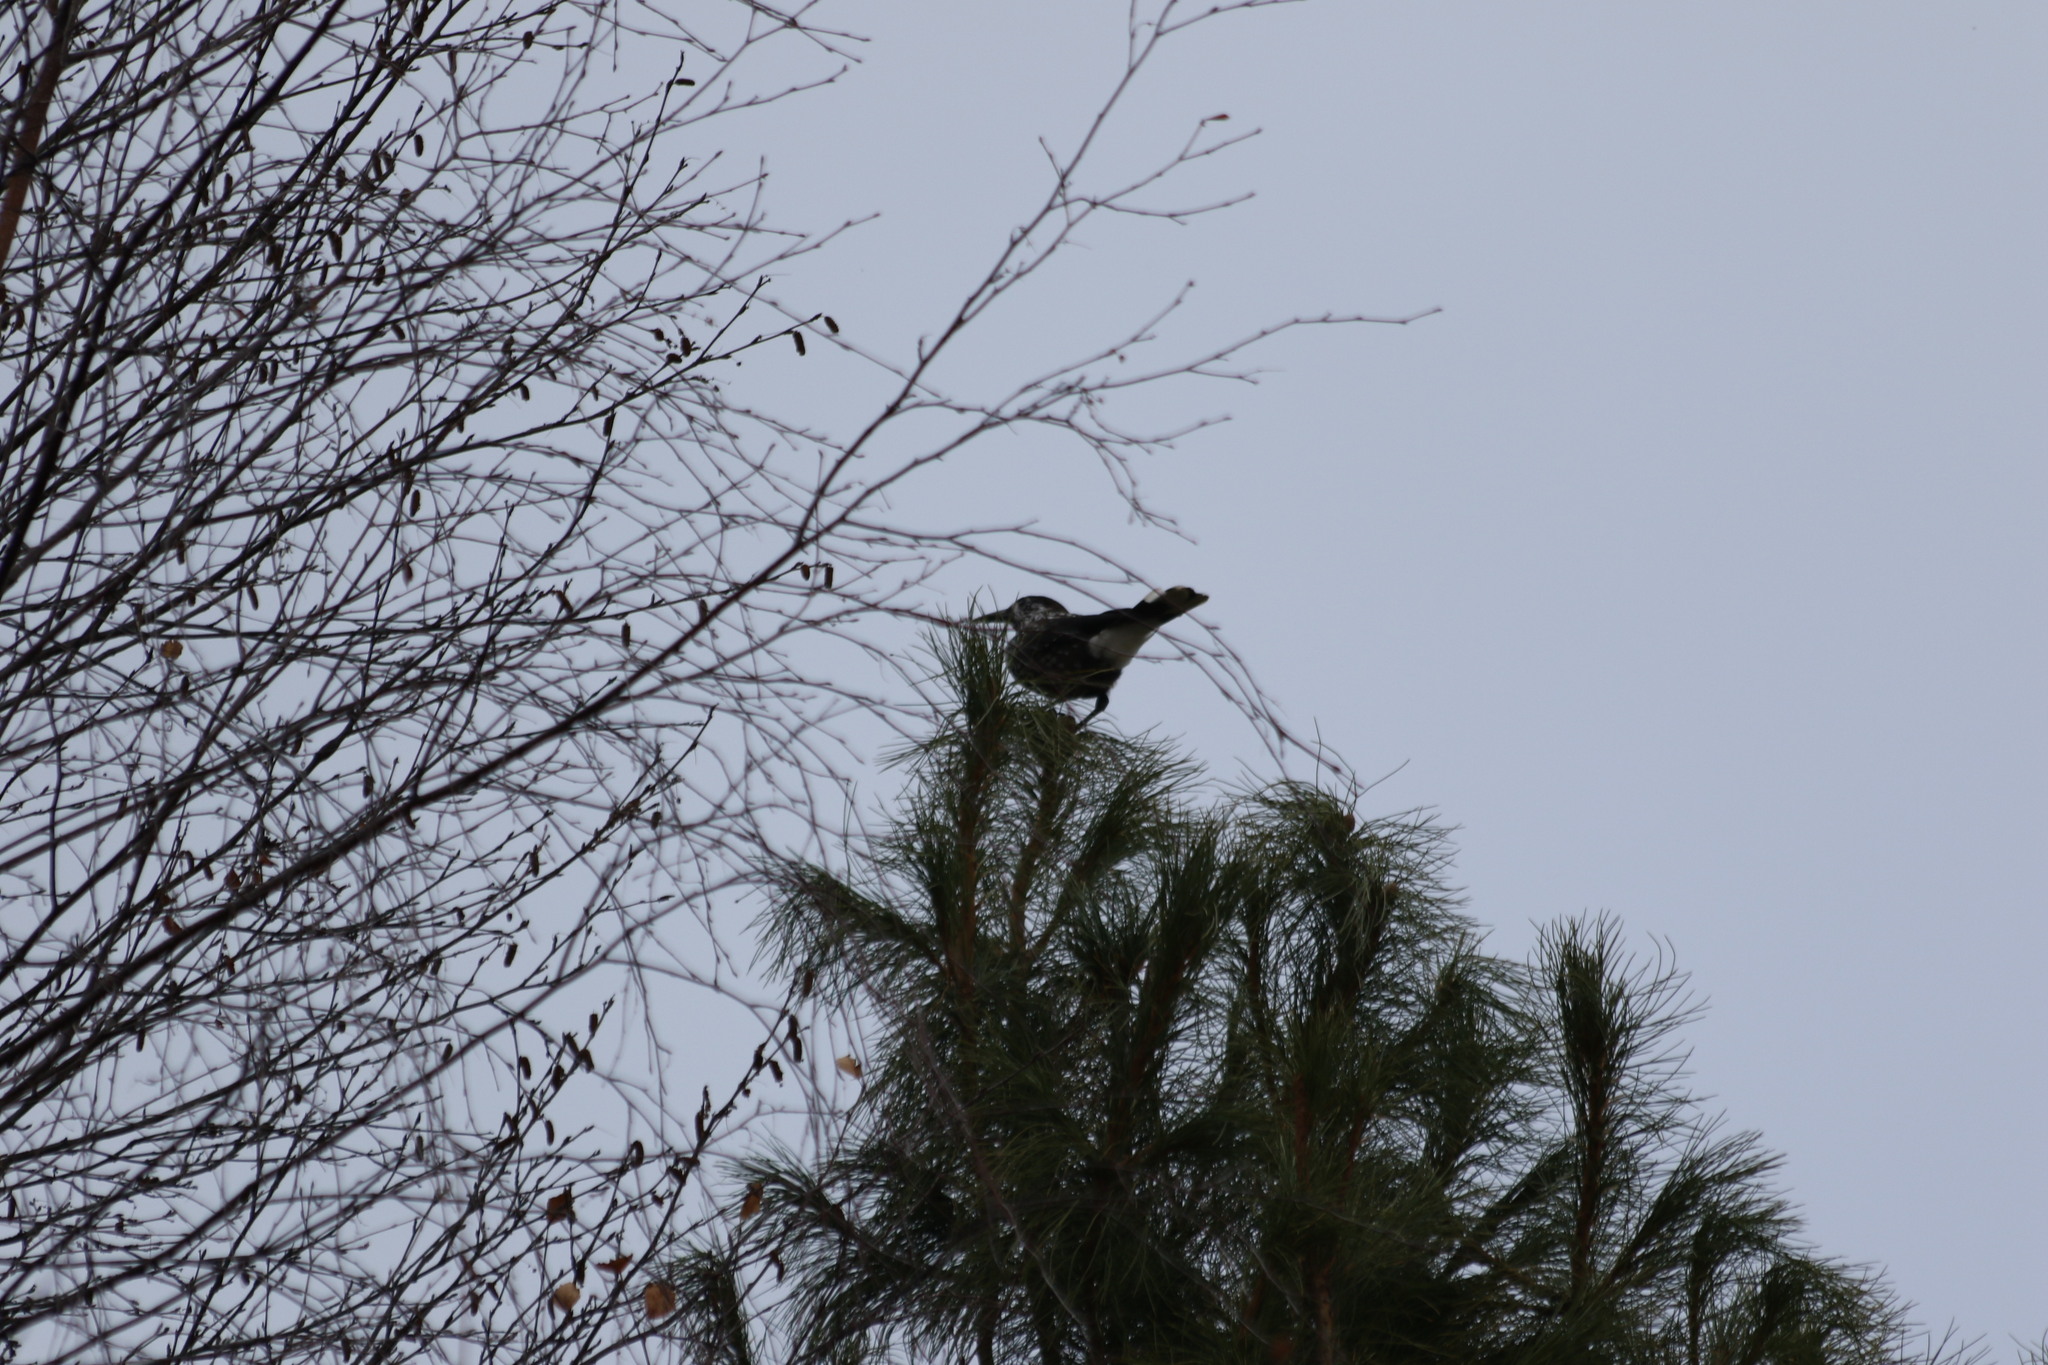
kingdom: Animalia
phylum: Chordata
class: Aves
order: Passeriformes
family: Corvidae
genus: Nucifraga
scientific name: Nucifraga caryocatactes
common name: Spotted nutcracker
